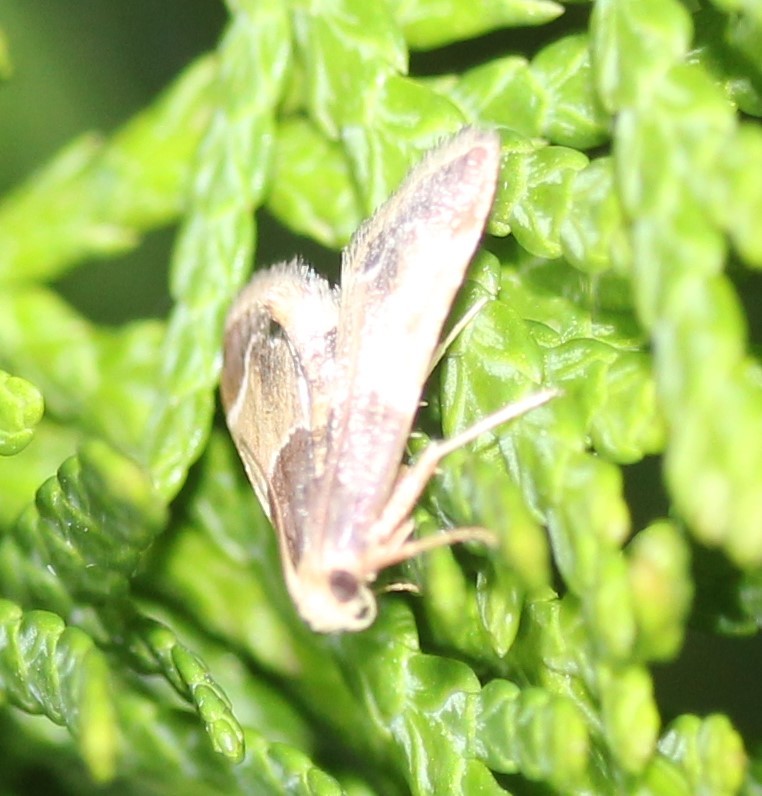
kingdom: Animalia
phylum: Arthropoda
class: Insecta
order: Lepidoptera
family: Pyralidae
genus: Pyralis
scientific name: Pyralis farinalis
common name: Meal moth
